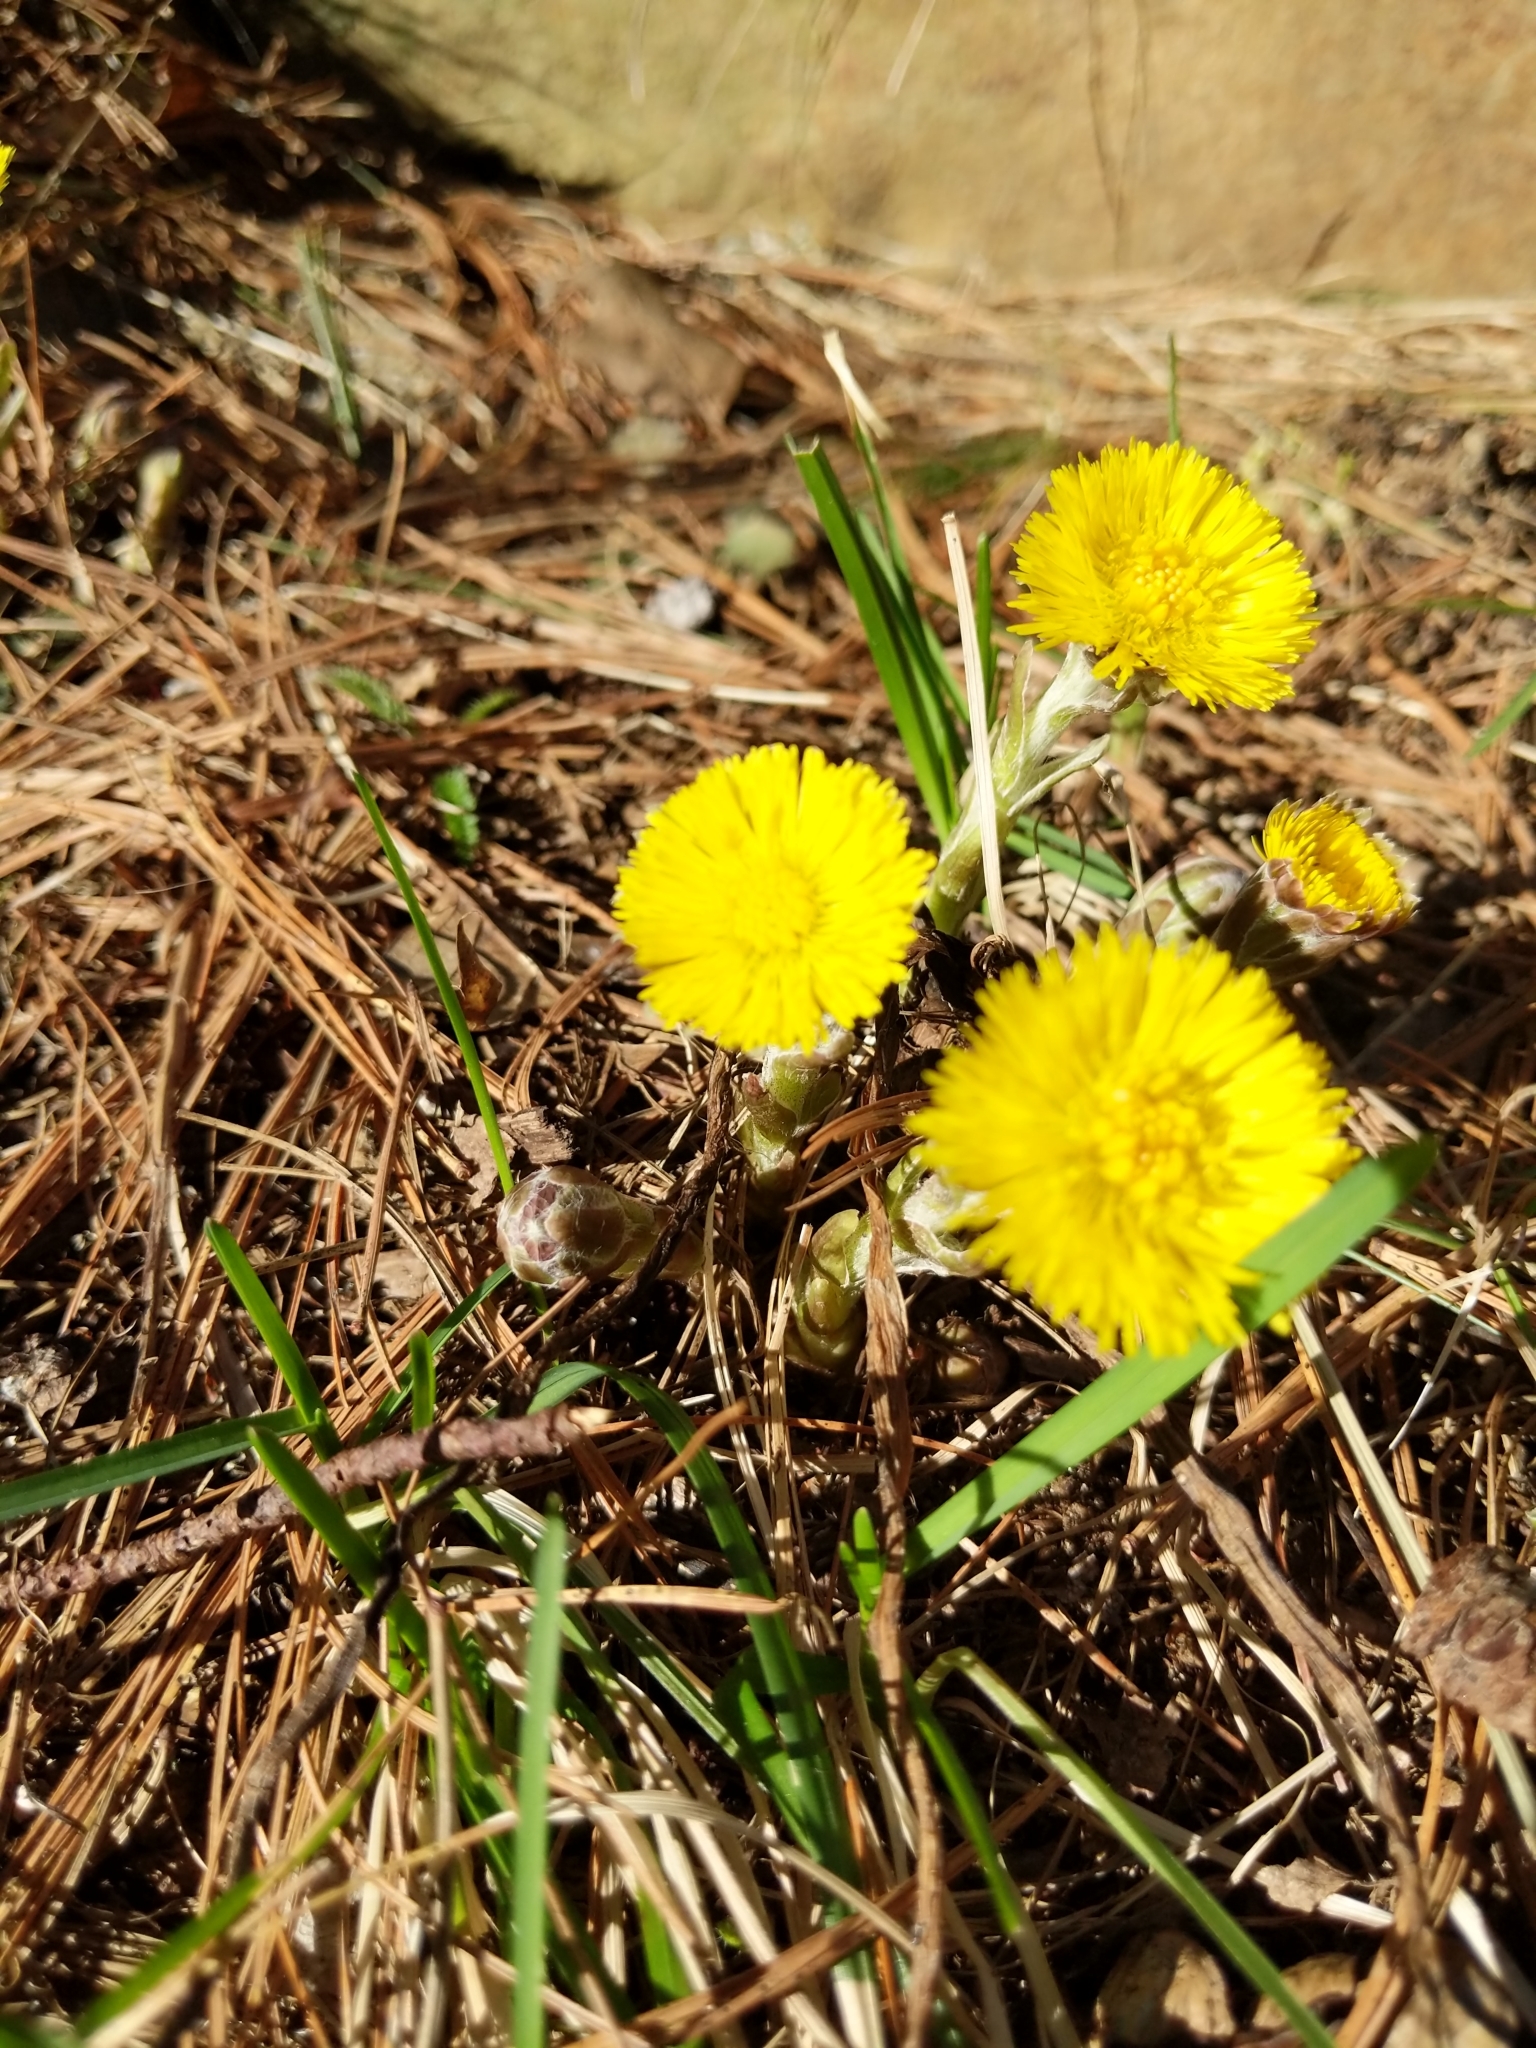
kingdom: Plantae
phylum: Tracheophyta
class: Magnoliopsida
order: Asterales
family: Asteraceae
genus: Tussilago
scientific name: Tussilago farfara
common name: Coltsfoot
